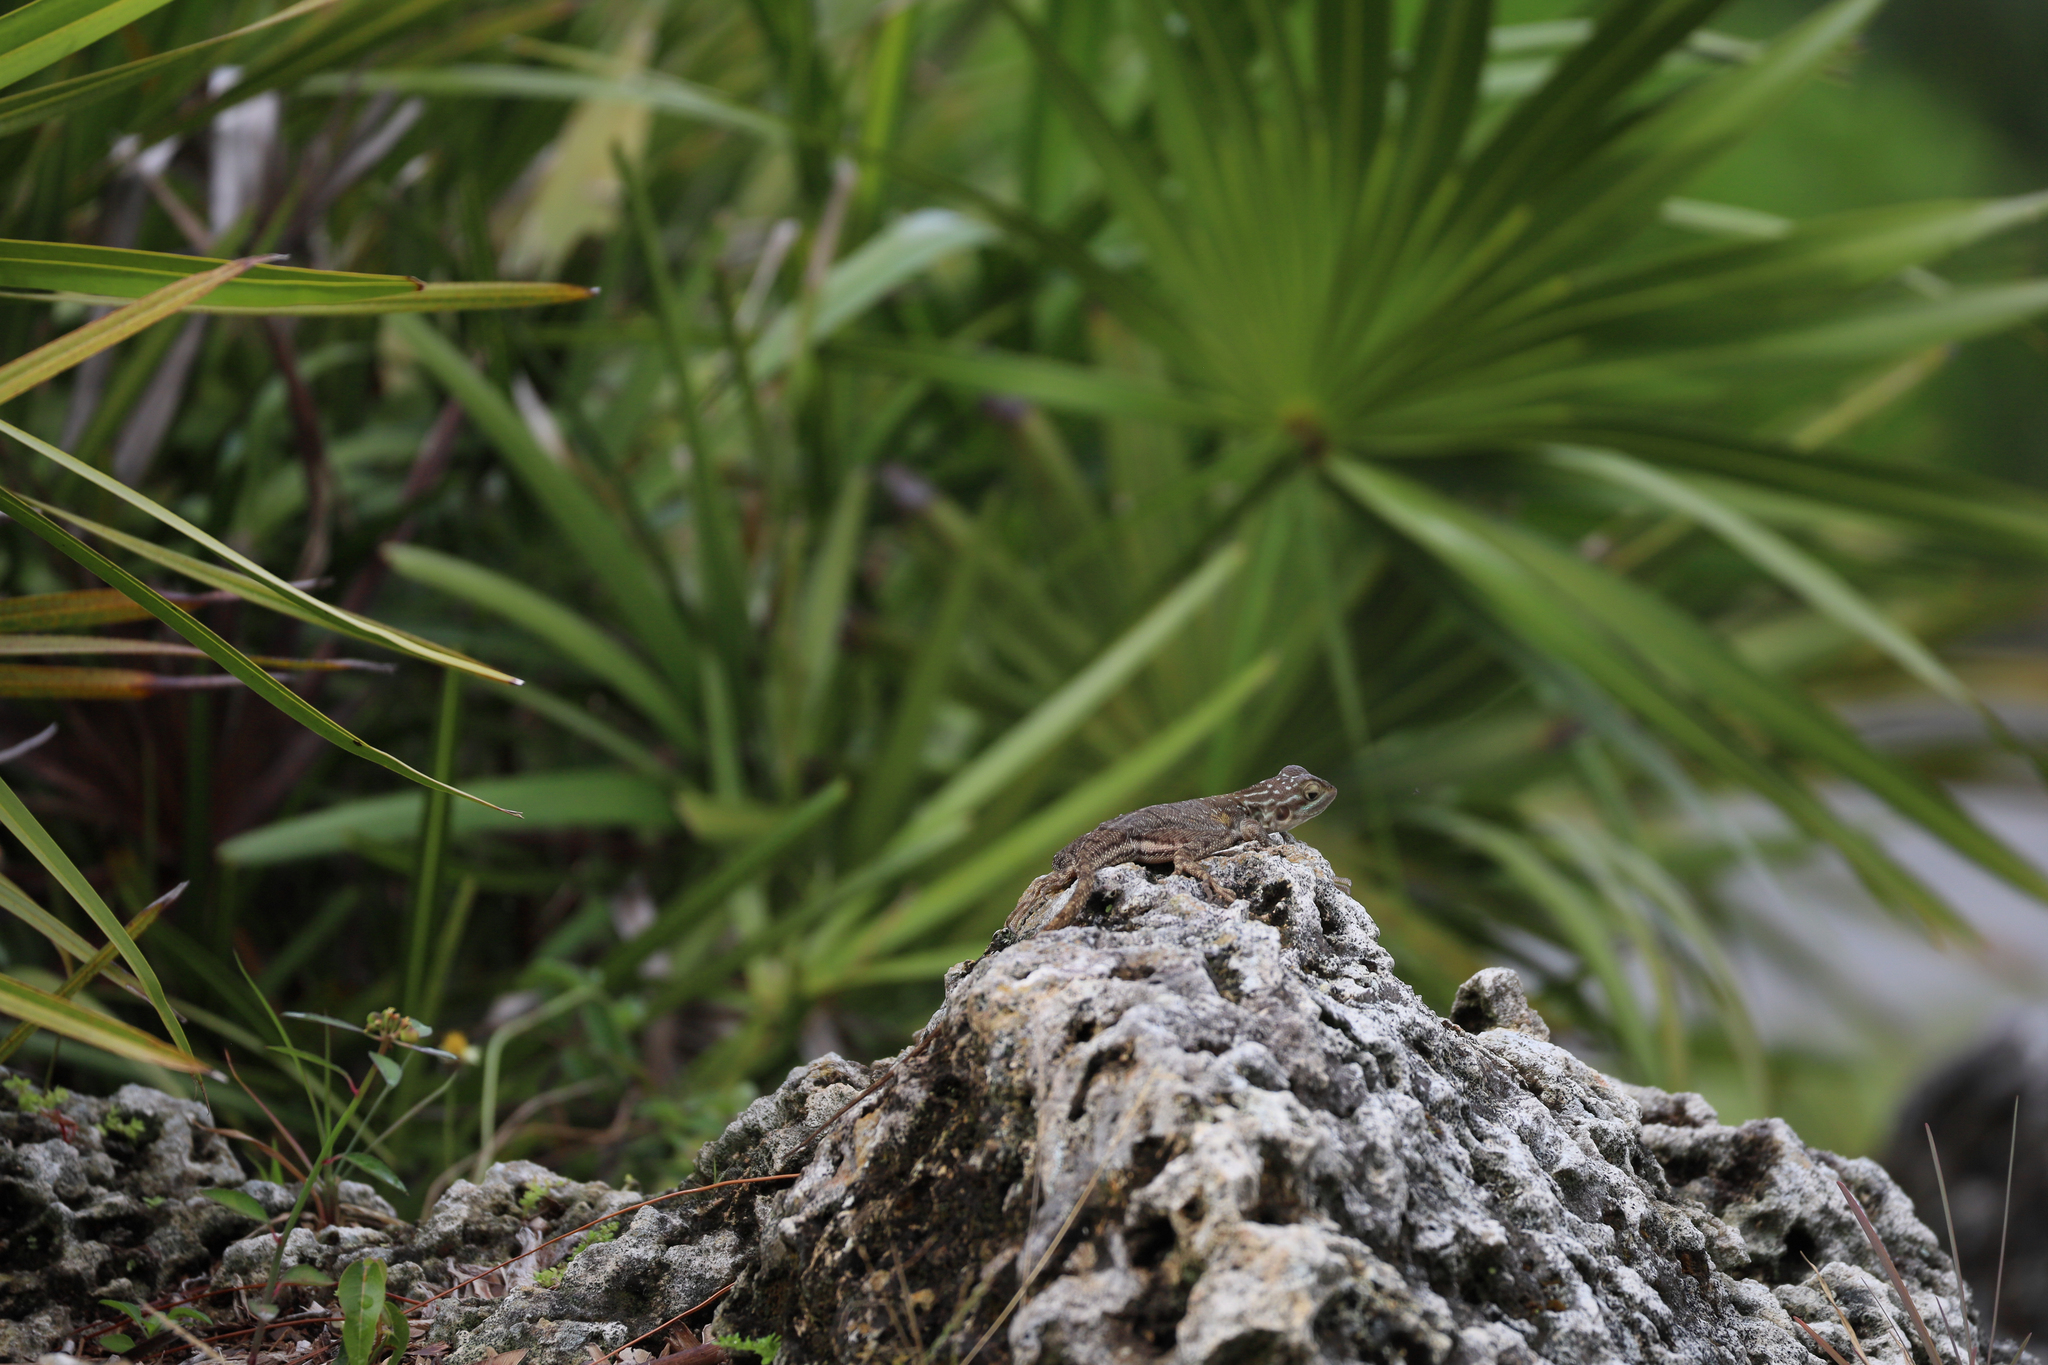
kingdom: Animalia
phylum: Chordata
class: Squamata
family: Agamidae
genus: Agama
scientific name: Agama picticauda
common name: Red-headed agama
